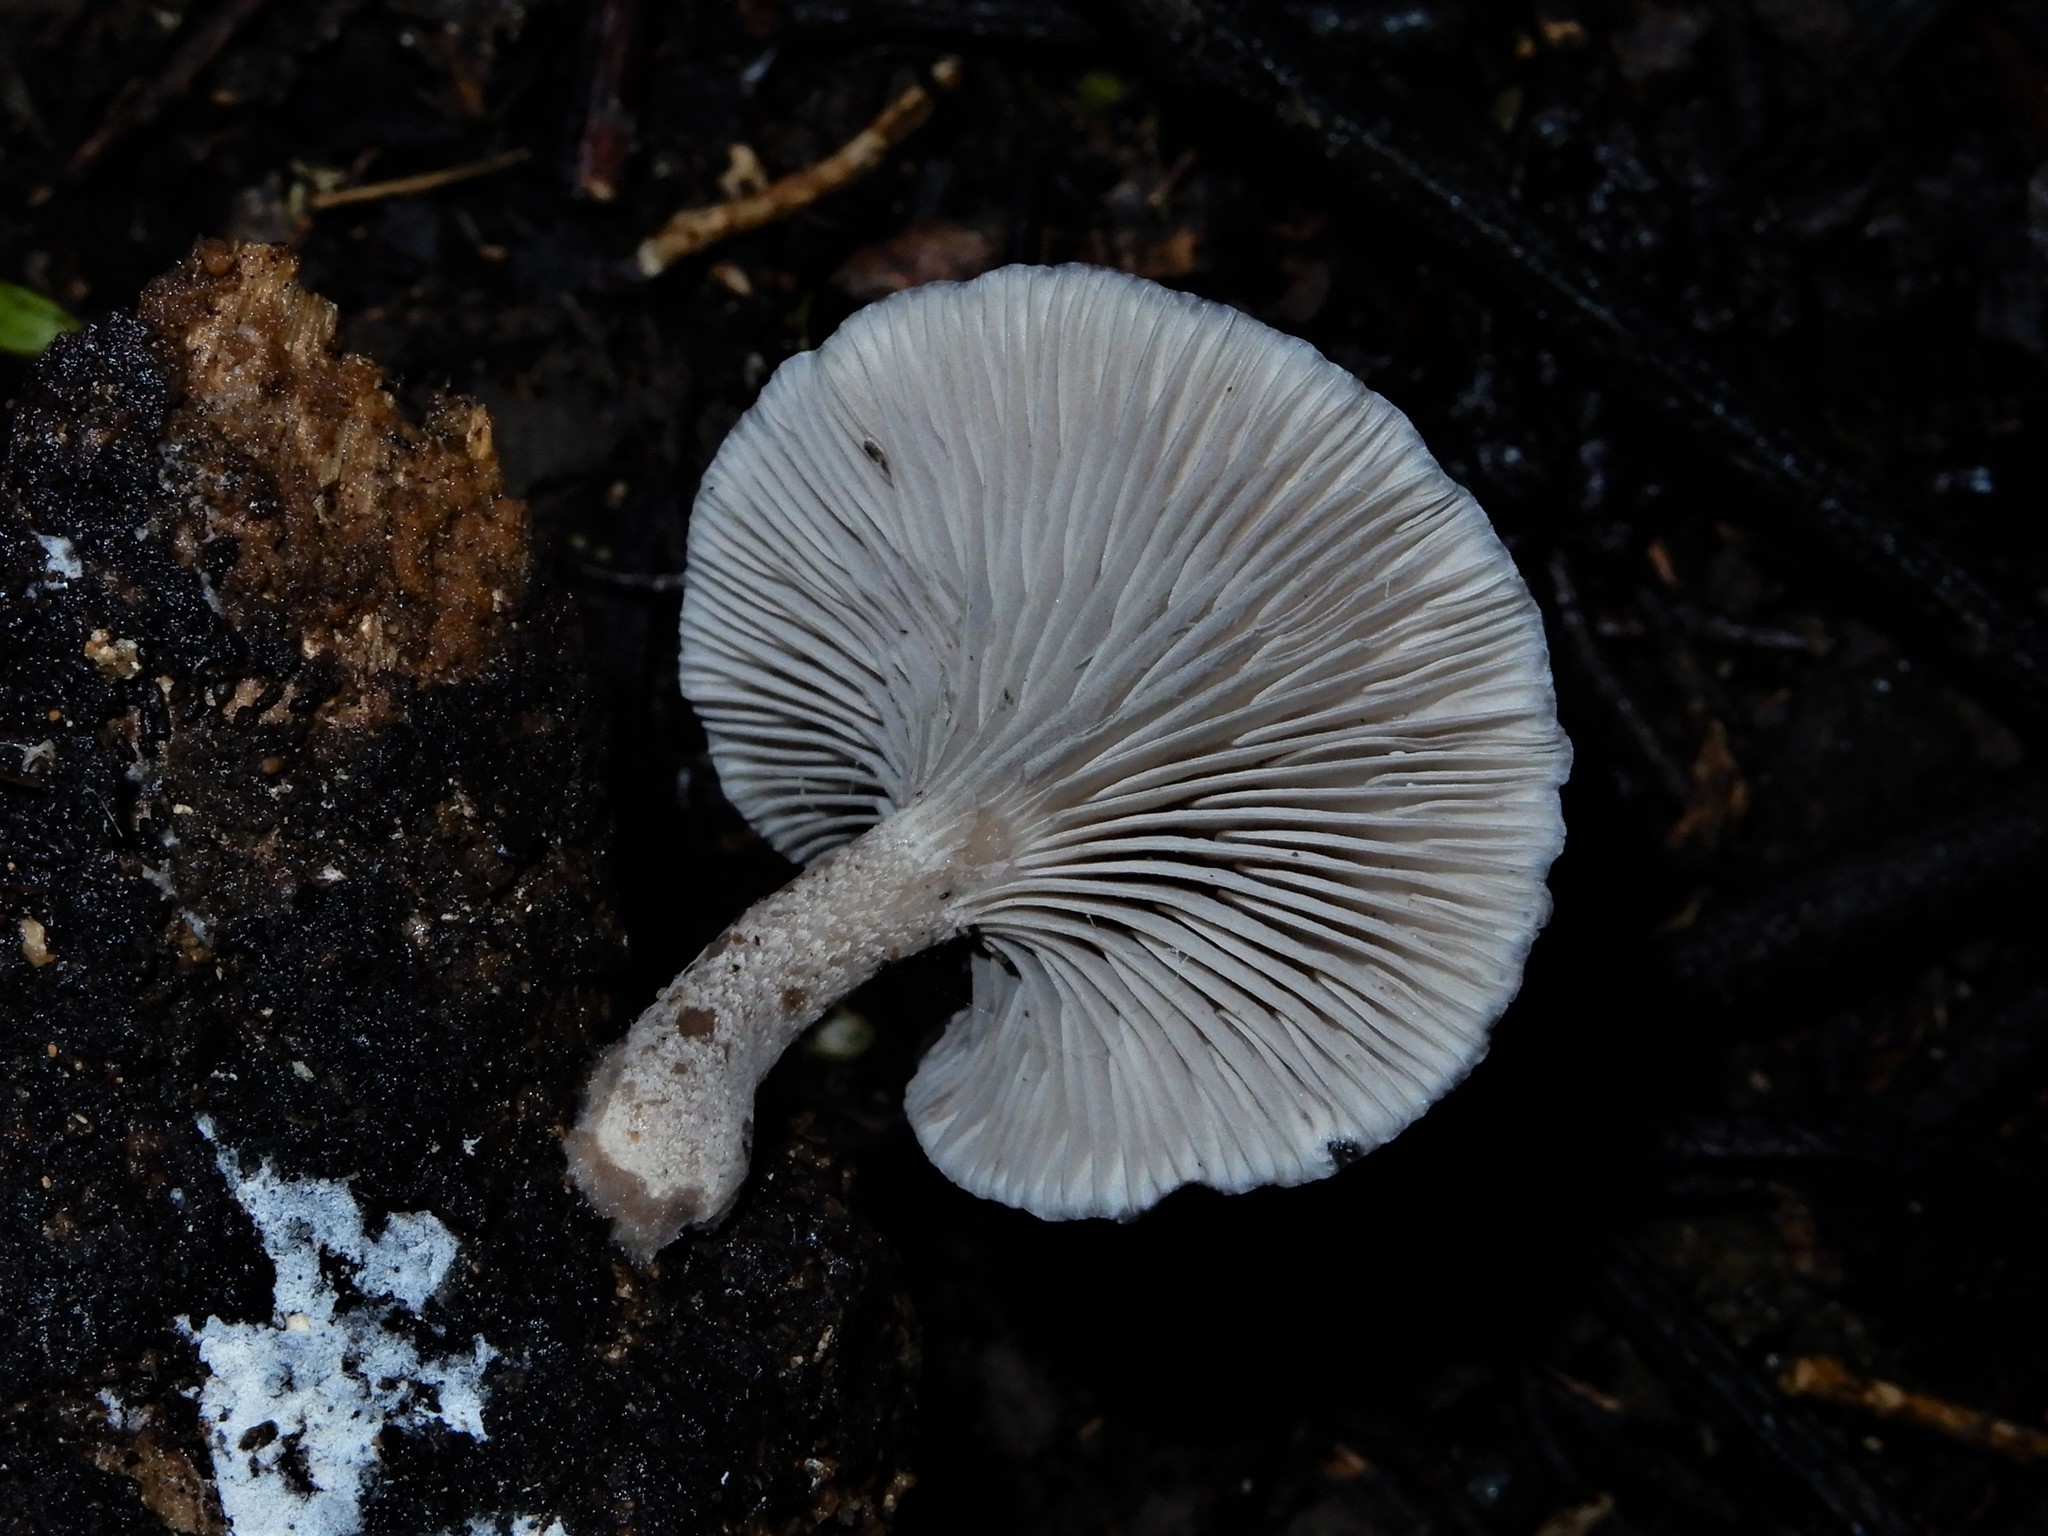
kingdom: Fungi
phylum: Basidiomycota
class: Agaricomycetes
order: Agaricales
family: Pleurotaceae
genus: Hohenbuehelia
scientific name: Hohenbuehelia
